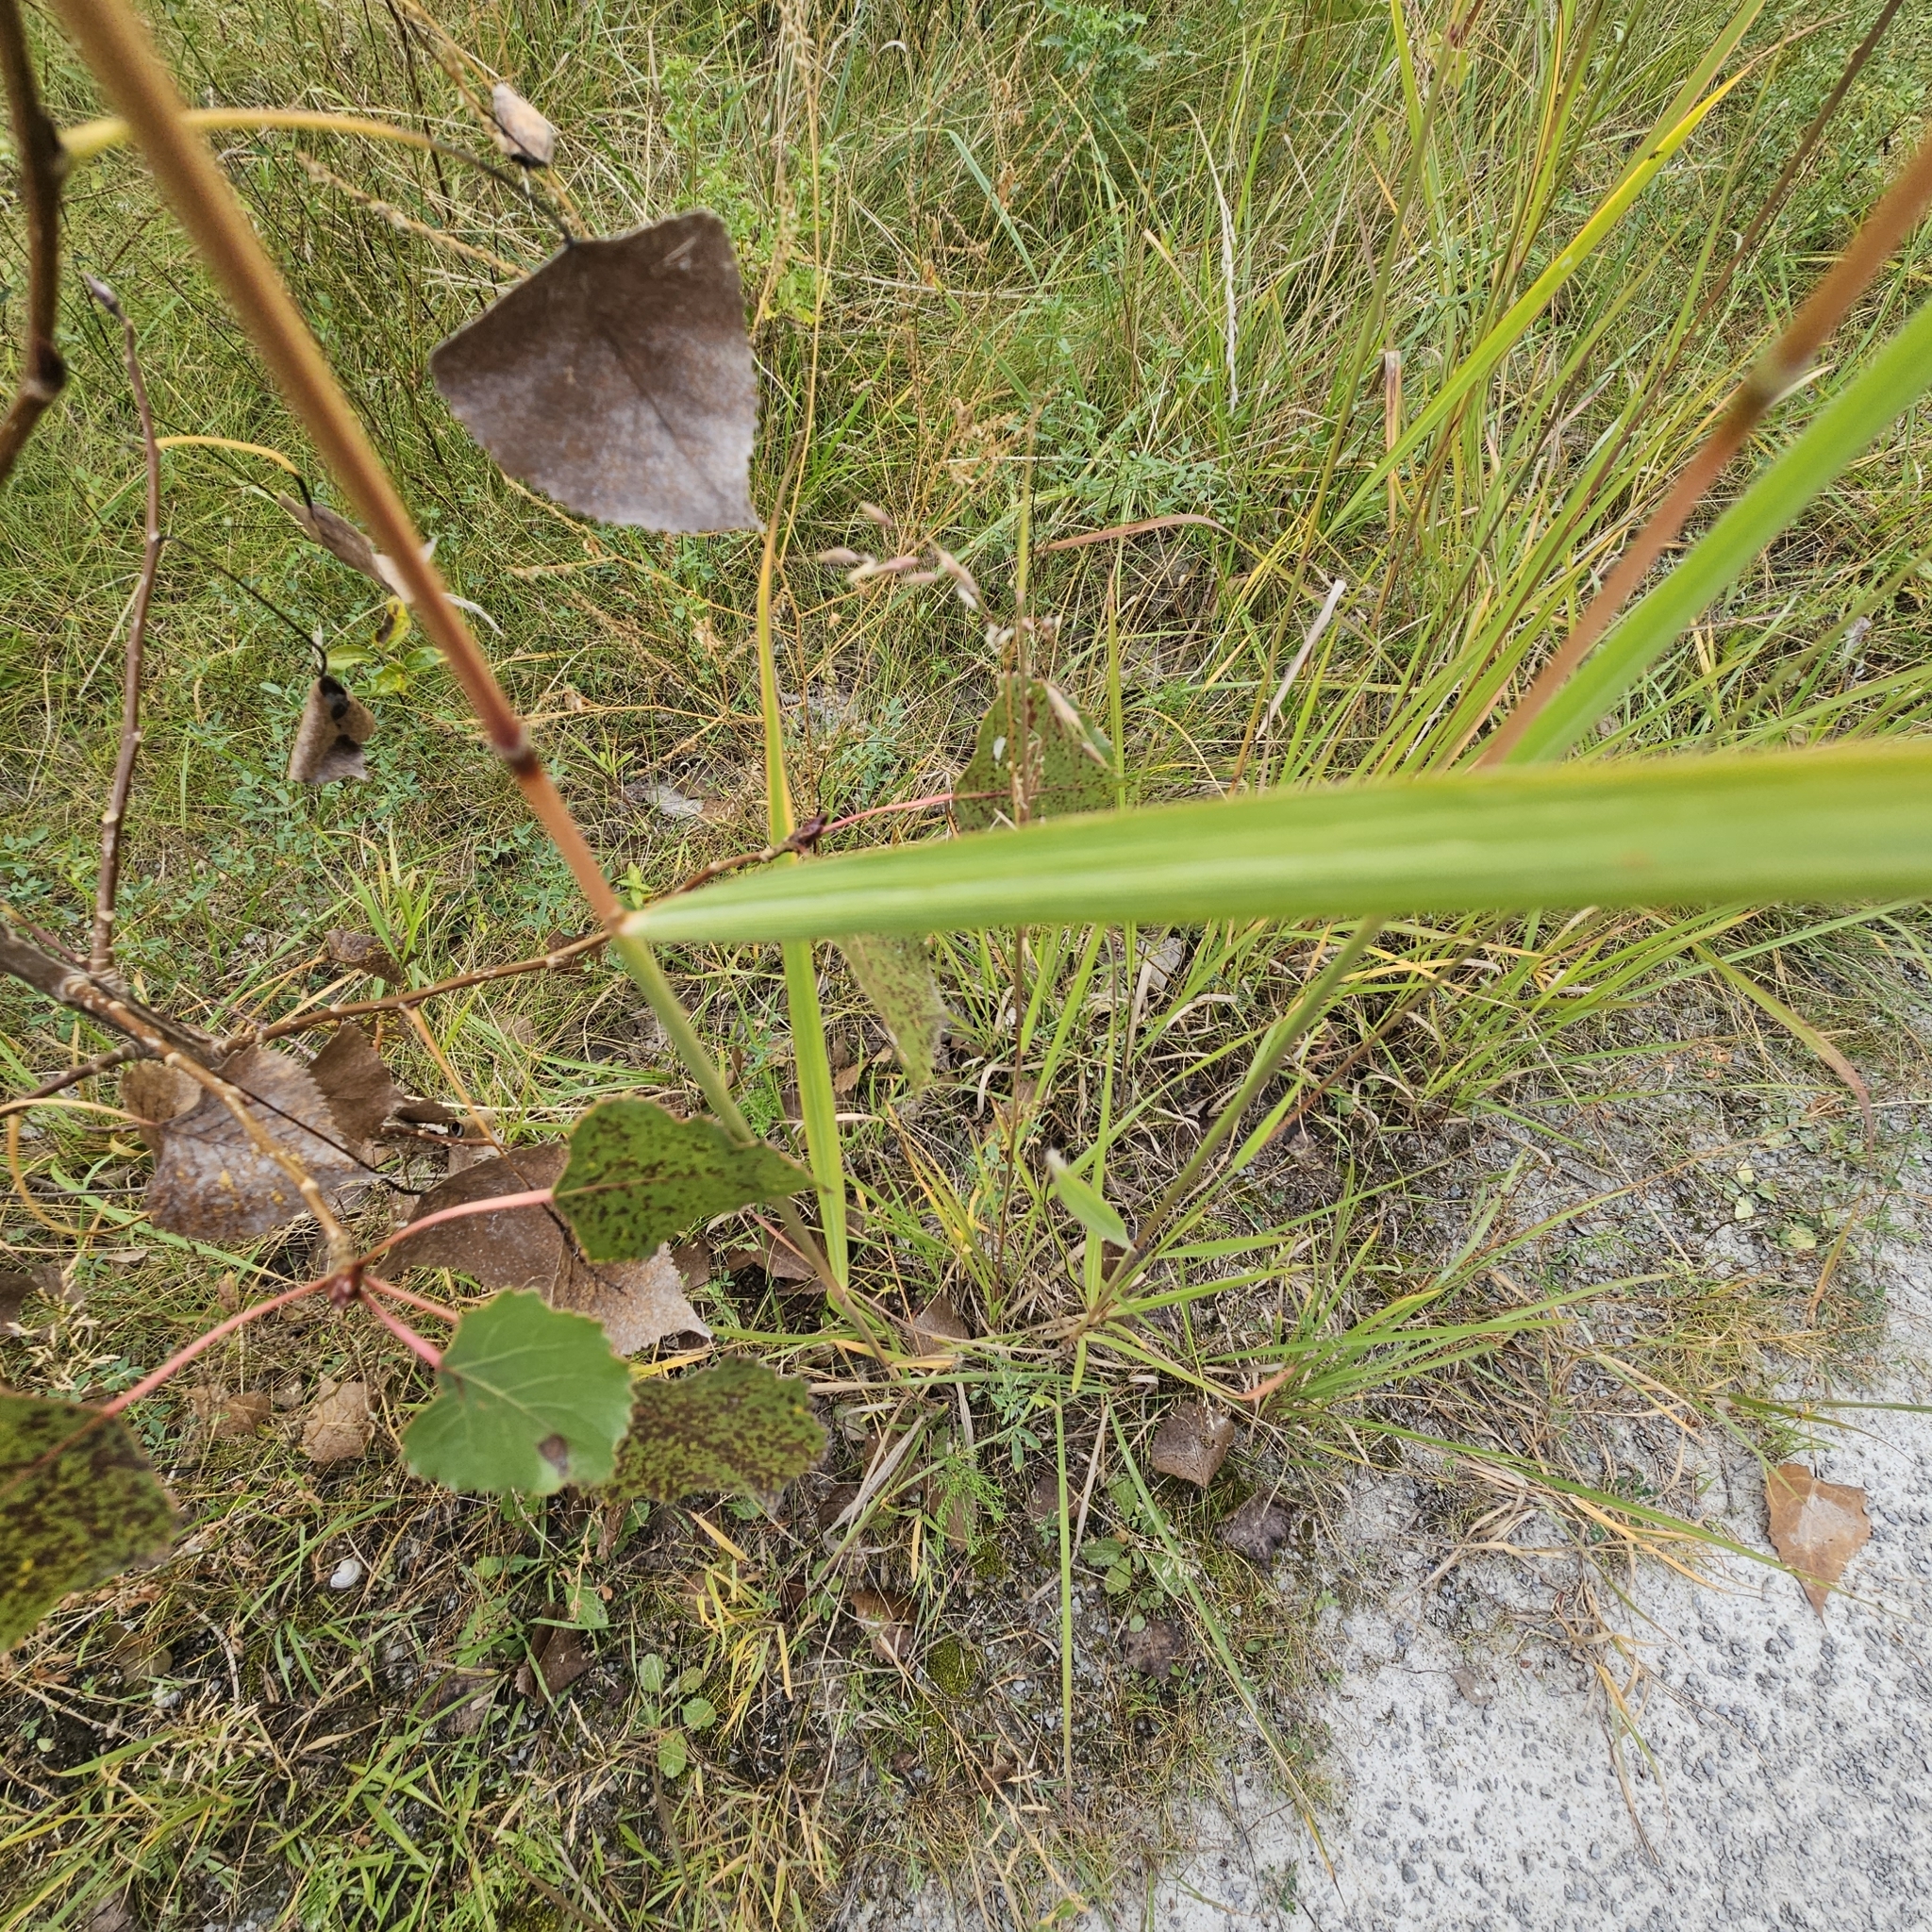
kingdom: Plantae
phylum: Tracheophyta
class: Liliopsida
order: Poales
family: Poaceae
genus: Sorghastrum
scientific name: Sorghastrum nutans
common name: Indian grass
